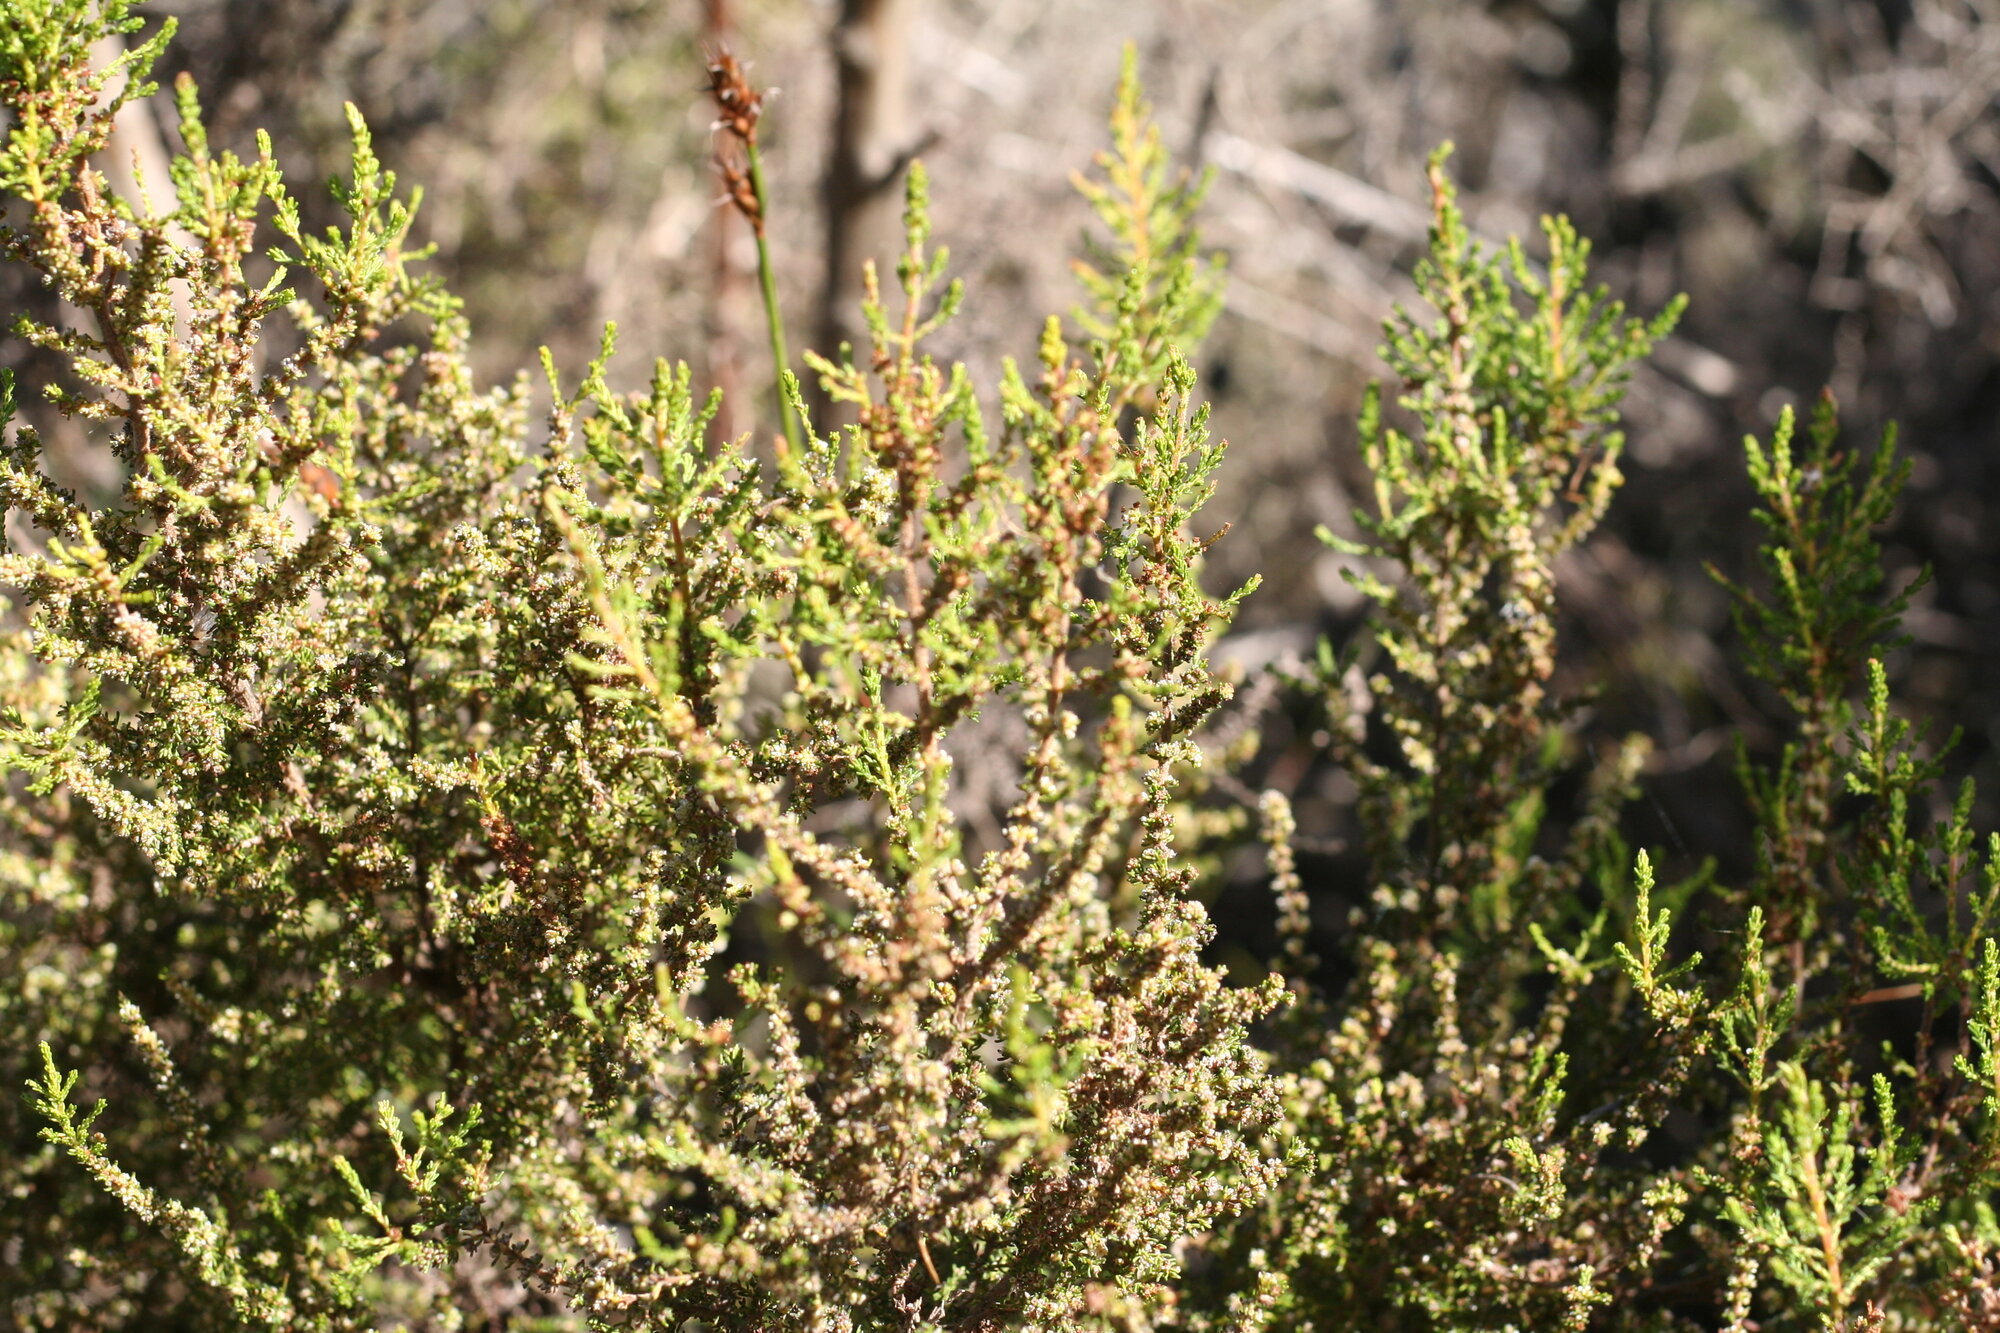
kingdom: Plantae
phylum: Tracheophyta
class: Magnoliopsida
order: Ericales
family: Ericaceae
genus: Erica
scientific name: Erica muscosa
